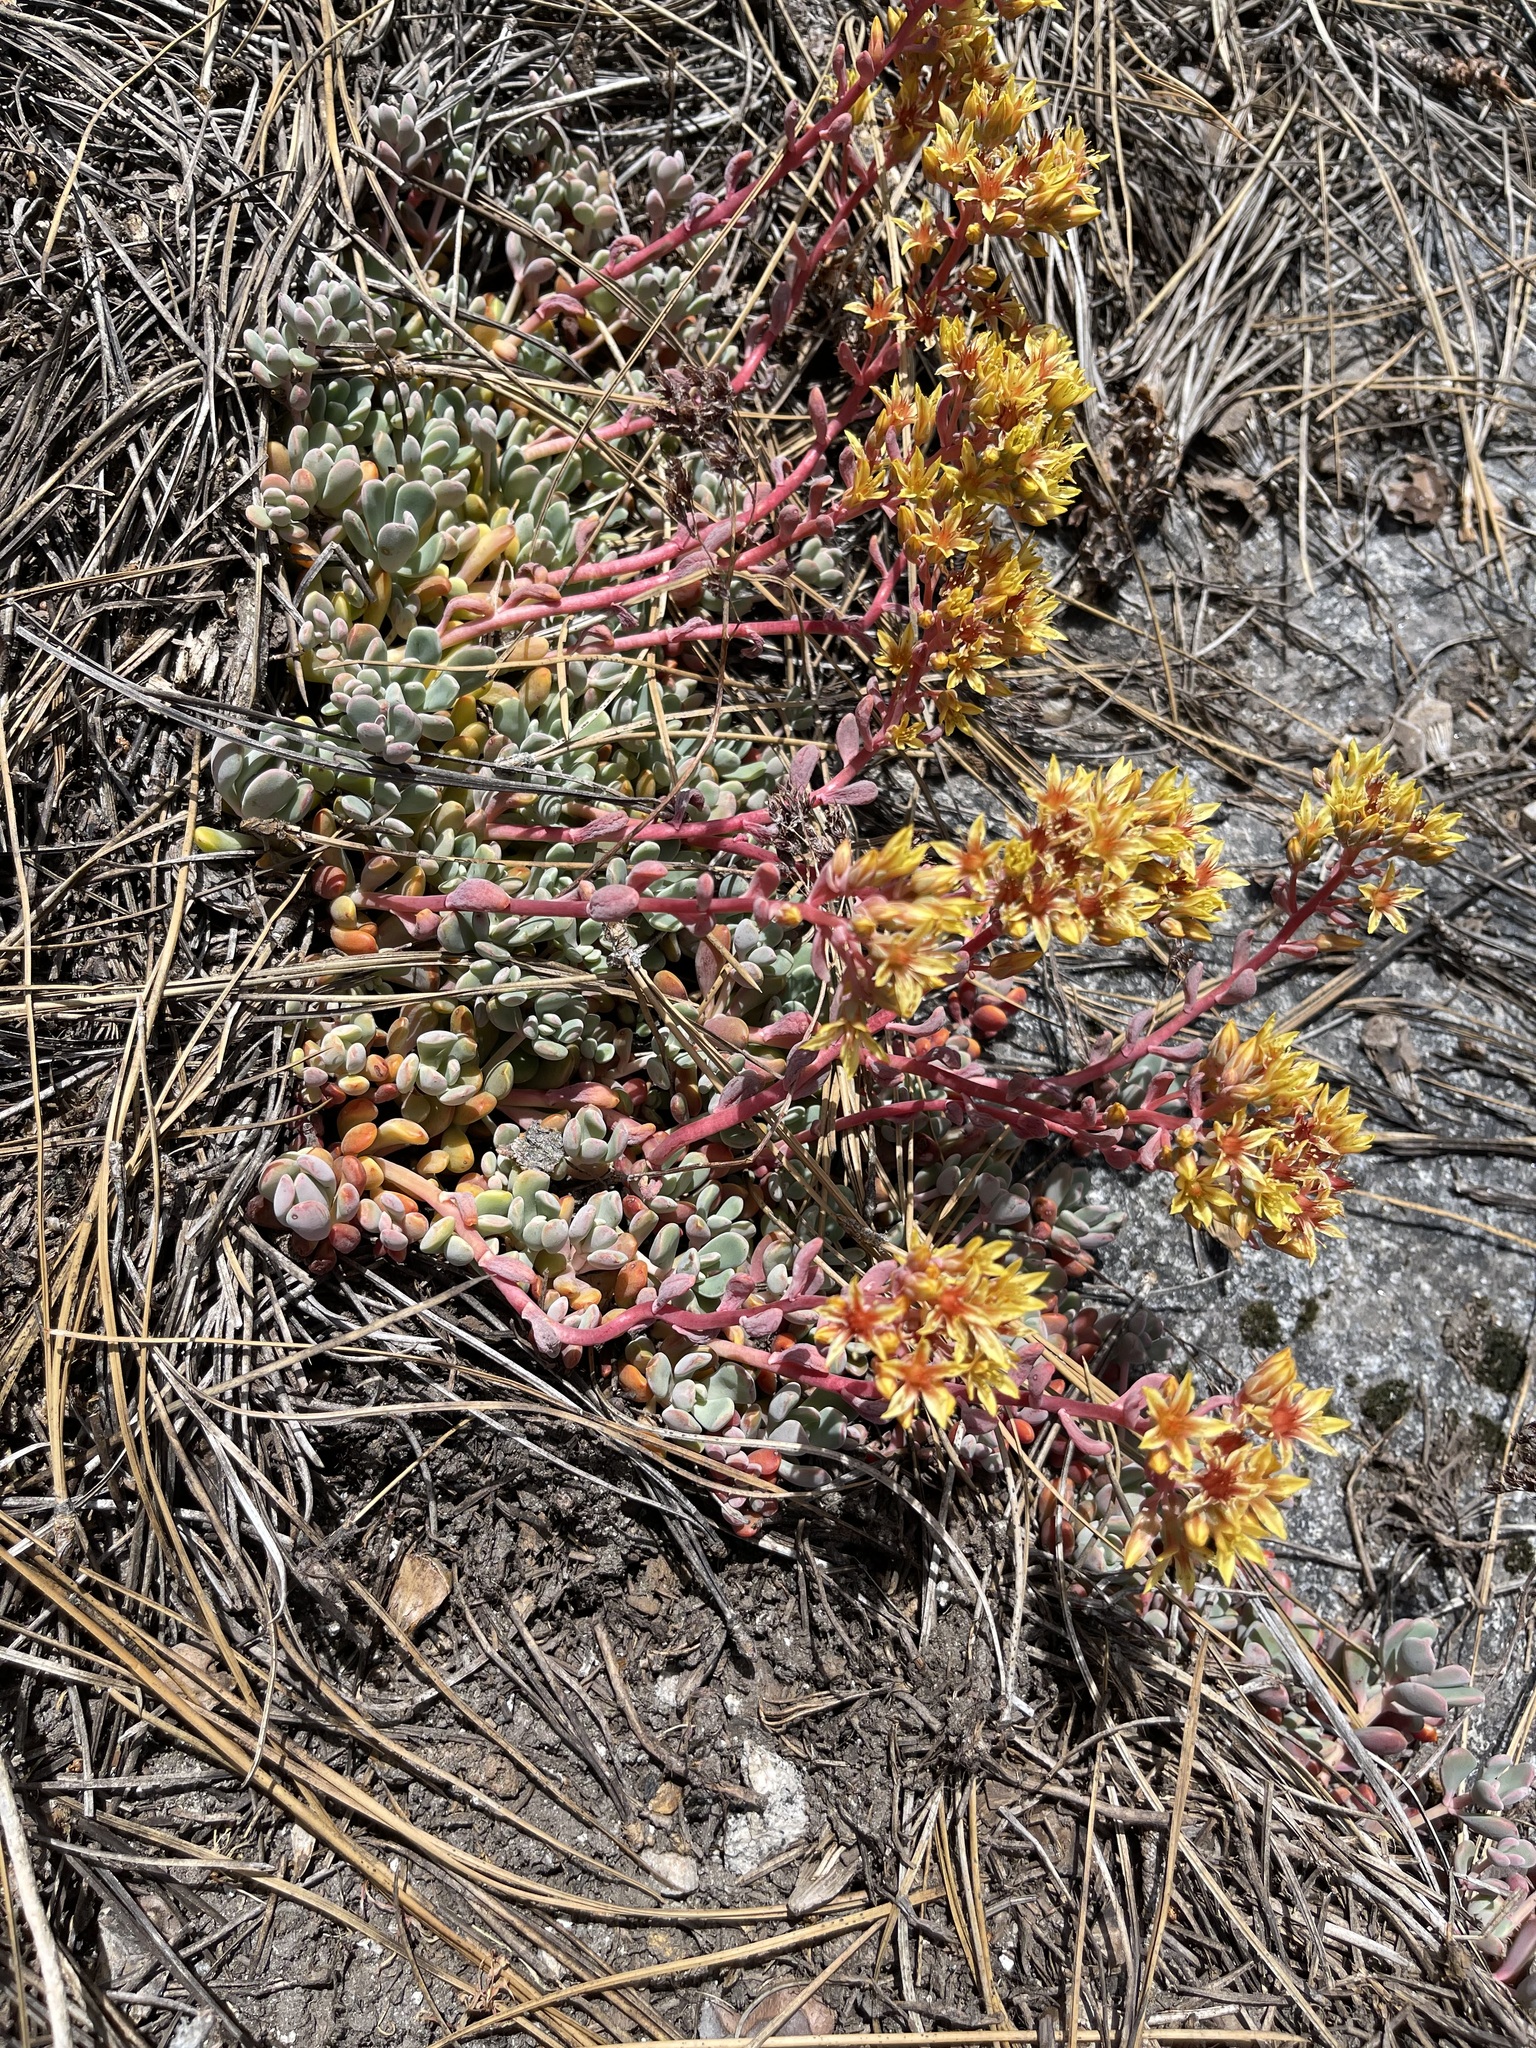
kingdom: Plantae
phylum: Tracheophyta
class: Magnoliopsida
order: Saxifragales
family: Crassulaceae
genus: Sedum
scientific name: Sedum obtusatum
